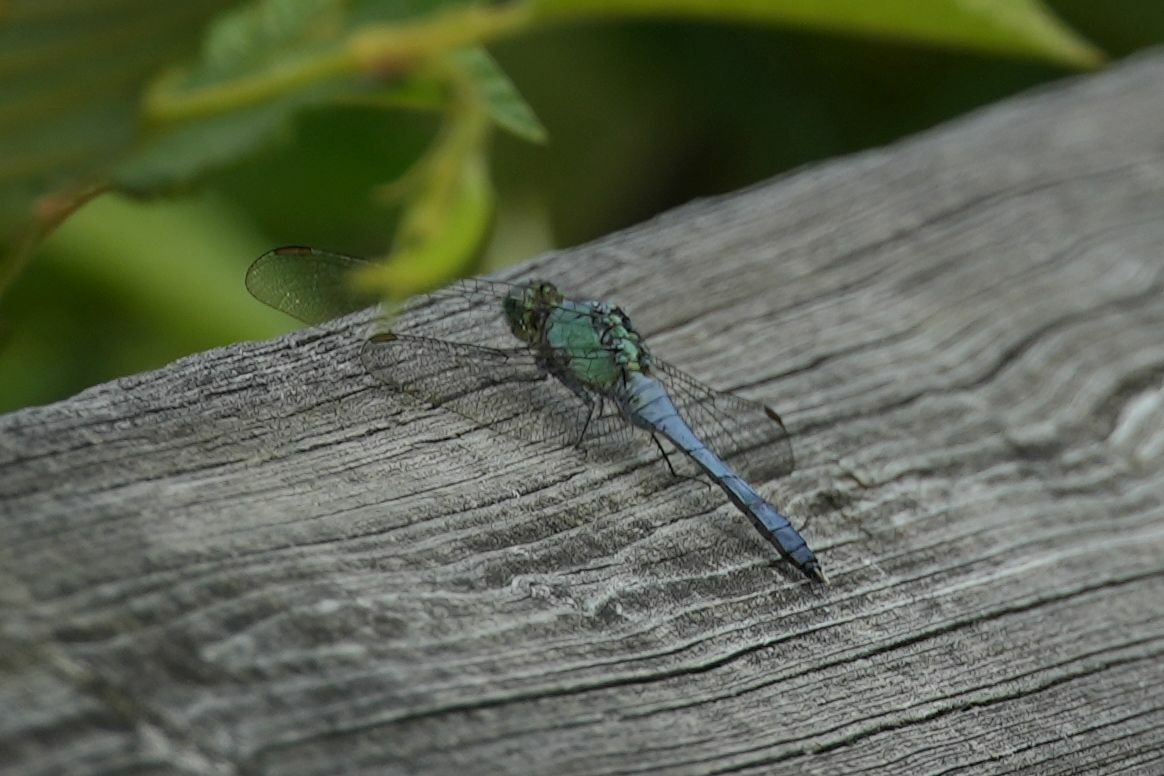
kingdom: Animalia
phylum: Arthropoda
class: Insecta
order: Odonata
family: Libellulidae
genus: Erythemis
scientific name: Erythemis simplicicollis
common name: Eastern pondhawk
